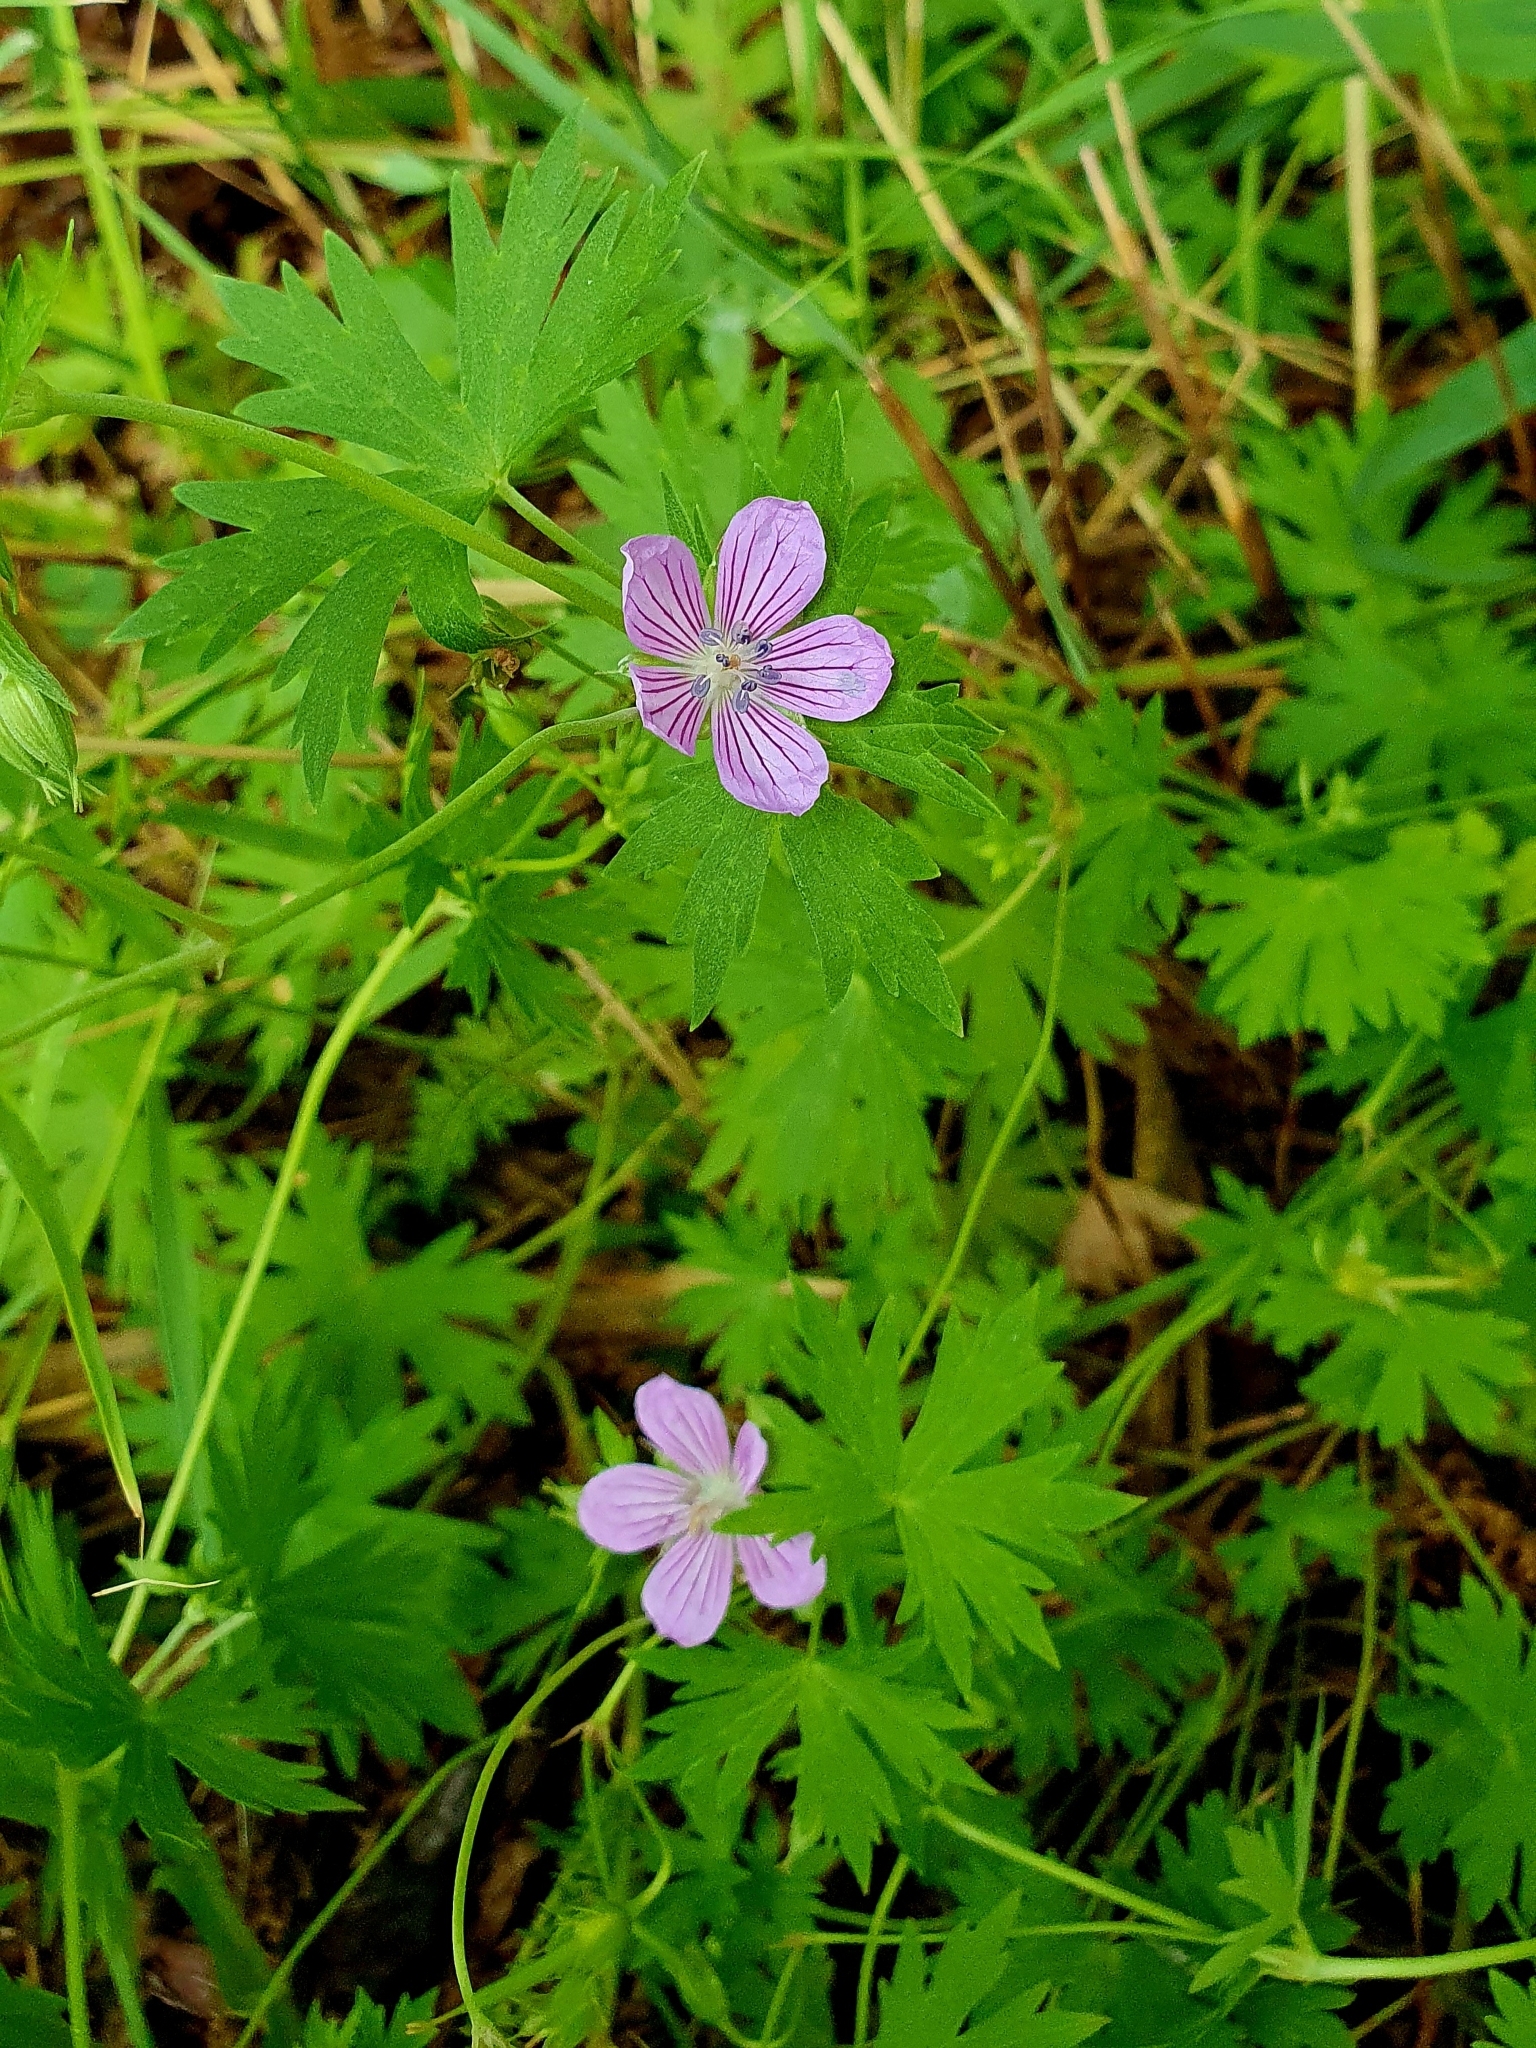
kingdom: Plantae
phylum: Tracheophyta
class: Magnoliopsida
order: Geraniales
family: Geraniaceae
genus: Geranium
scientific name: Geranium collinum
